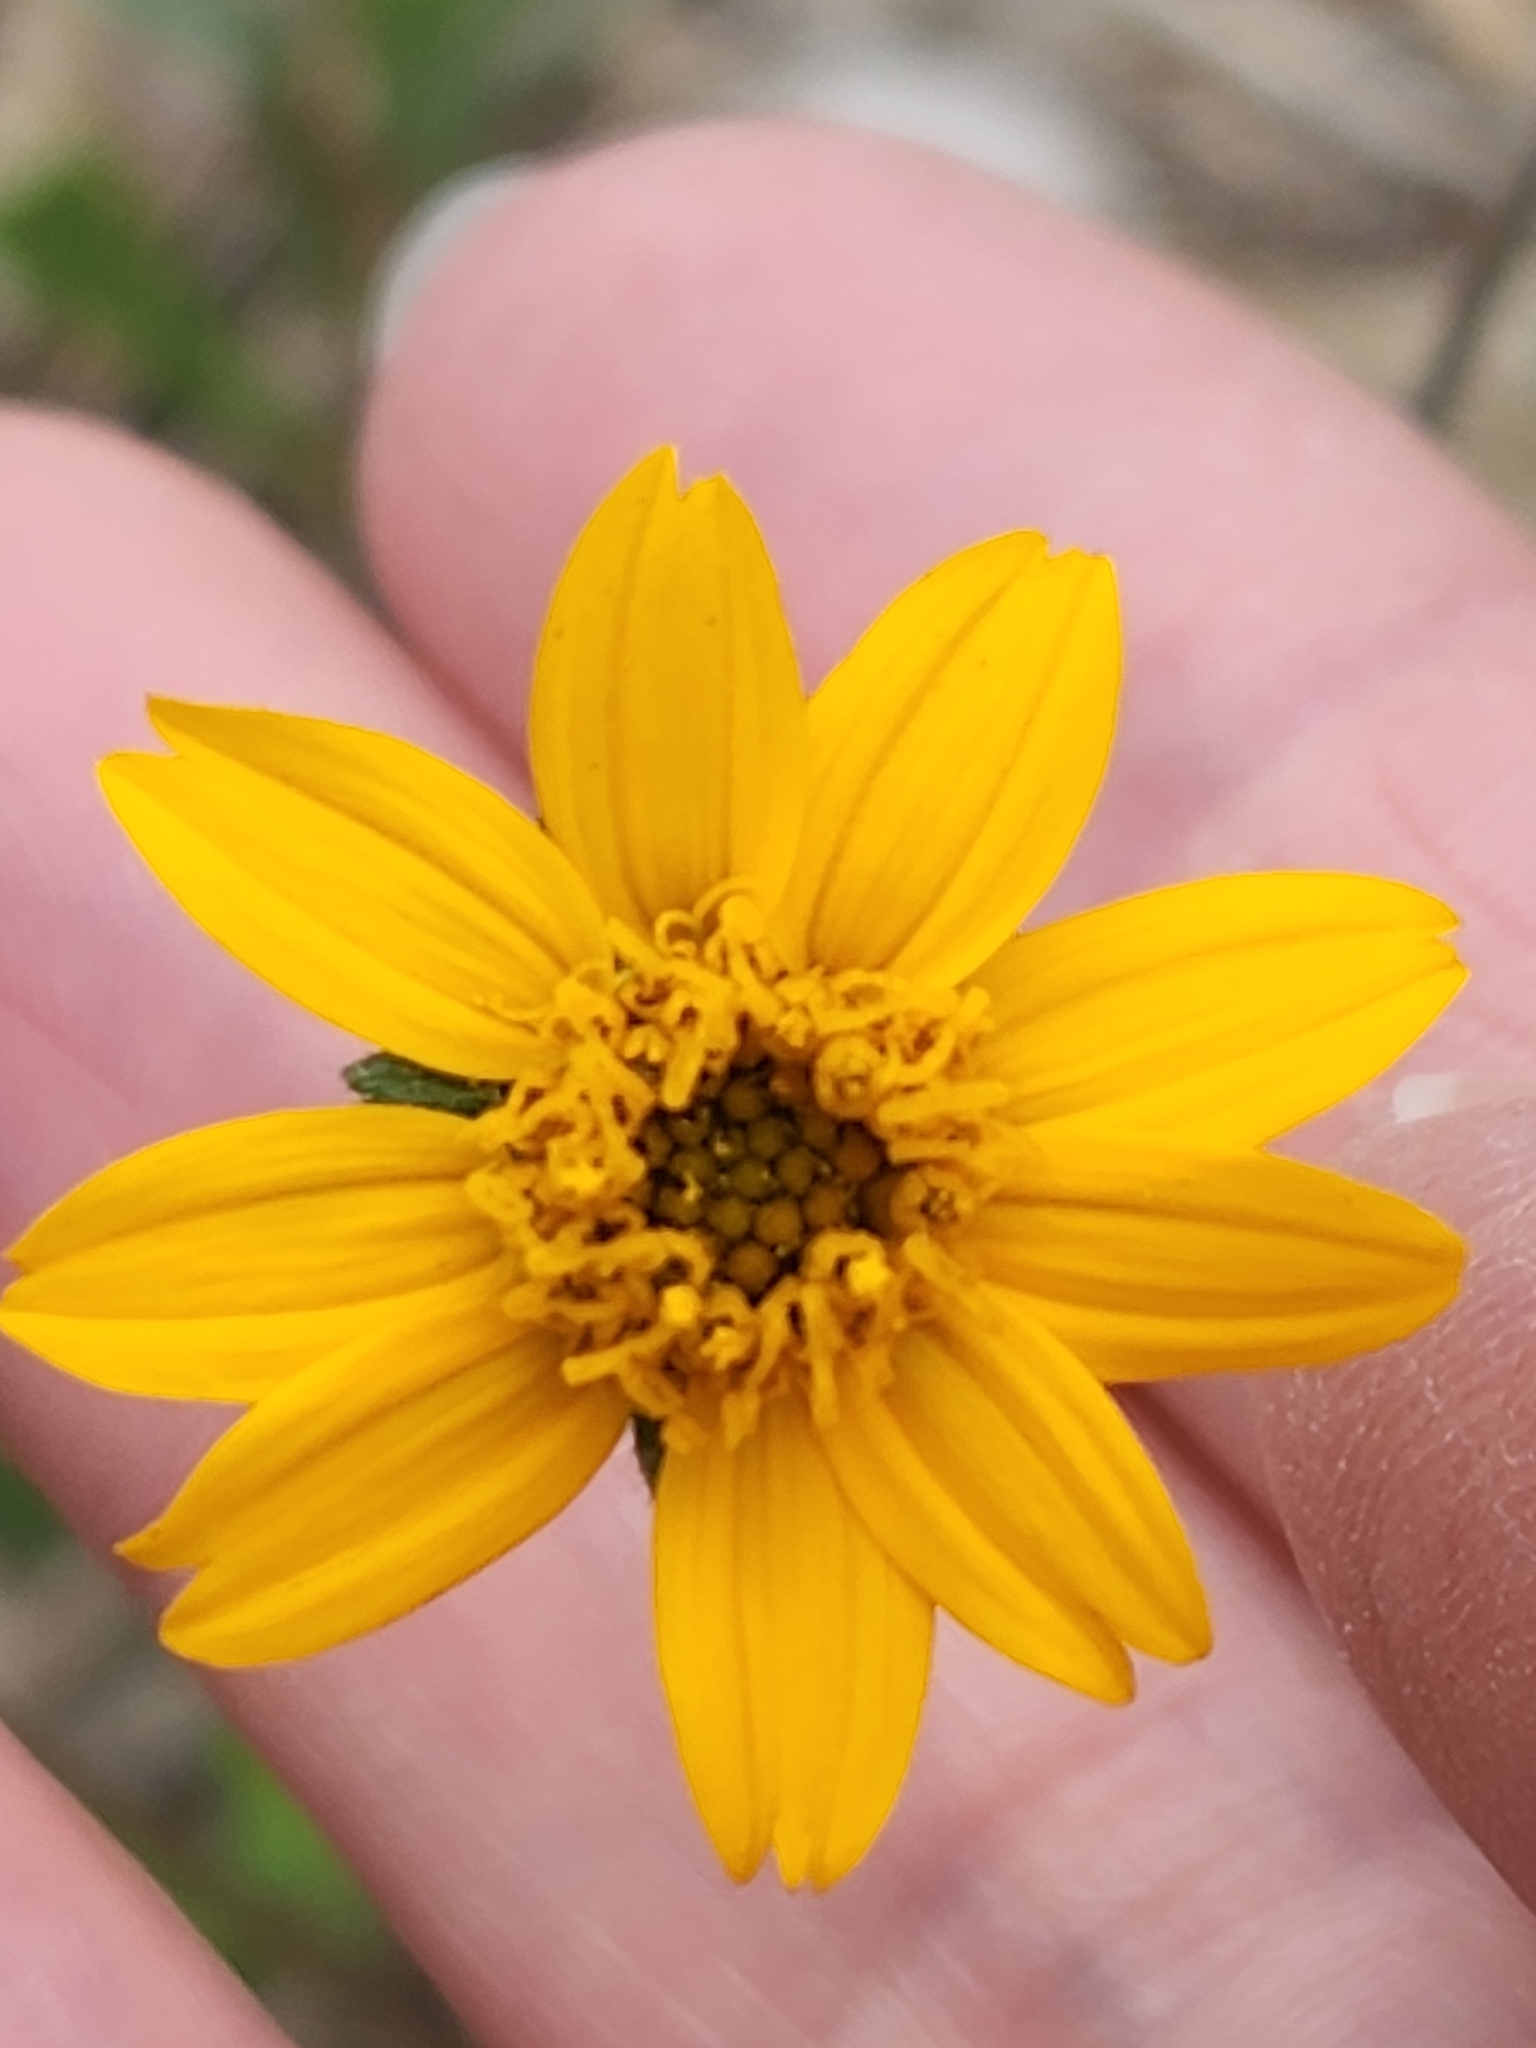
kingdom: Plantae
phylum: Tracheophyta
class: Magnoliopsida
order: Asterales
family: Asteraceae
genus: Wedelia
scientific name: Wedelia acapulcensis
